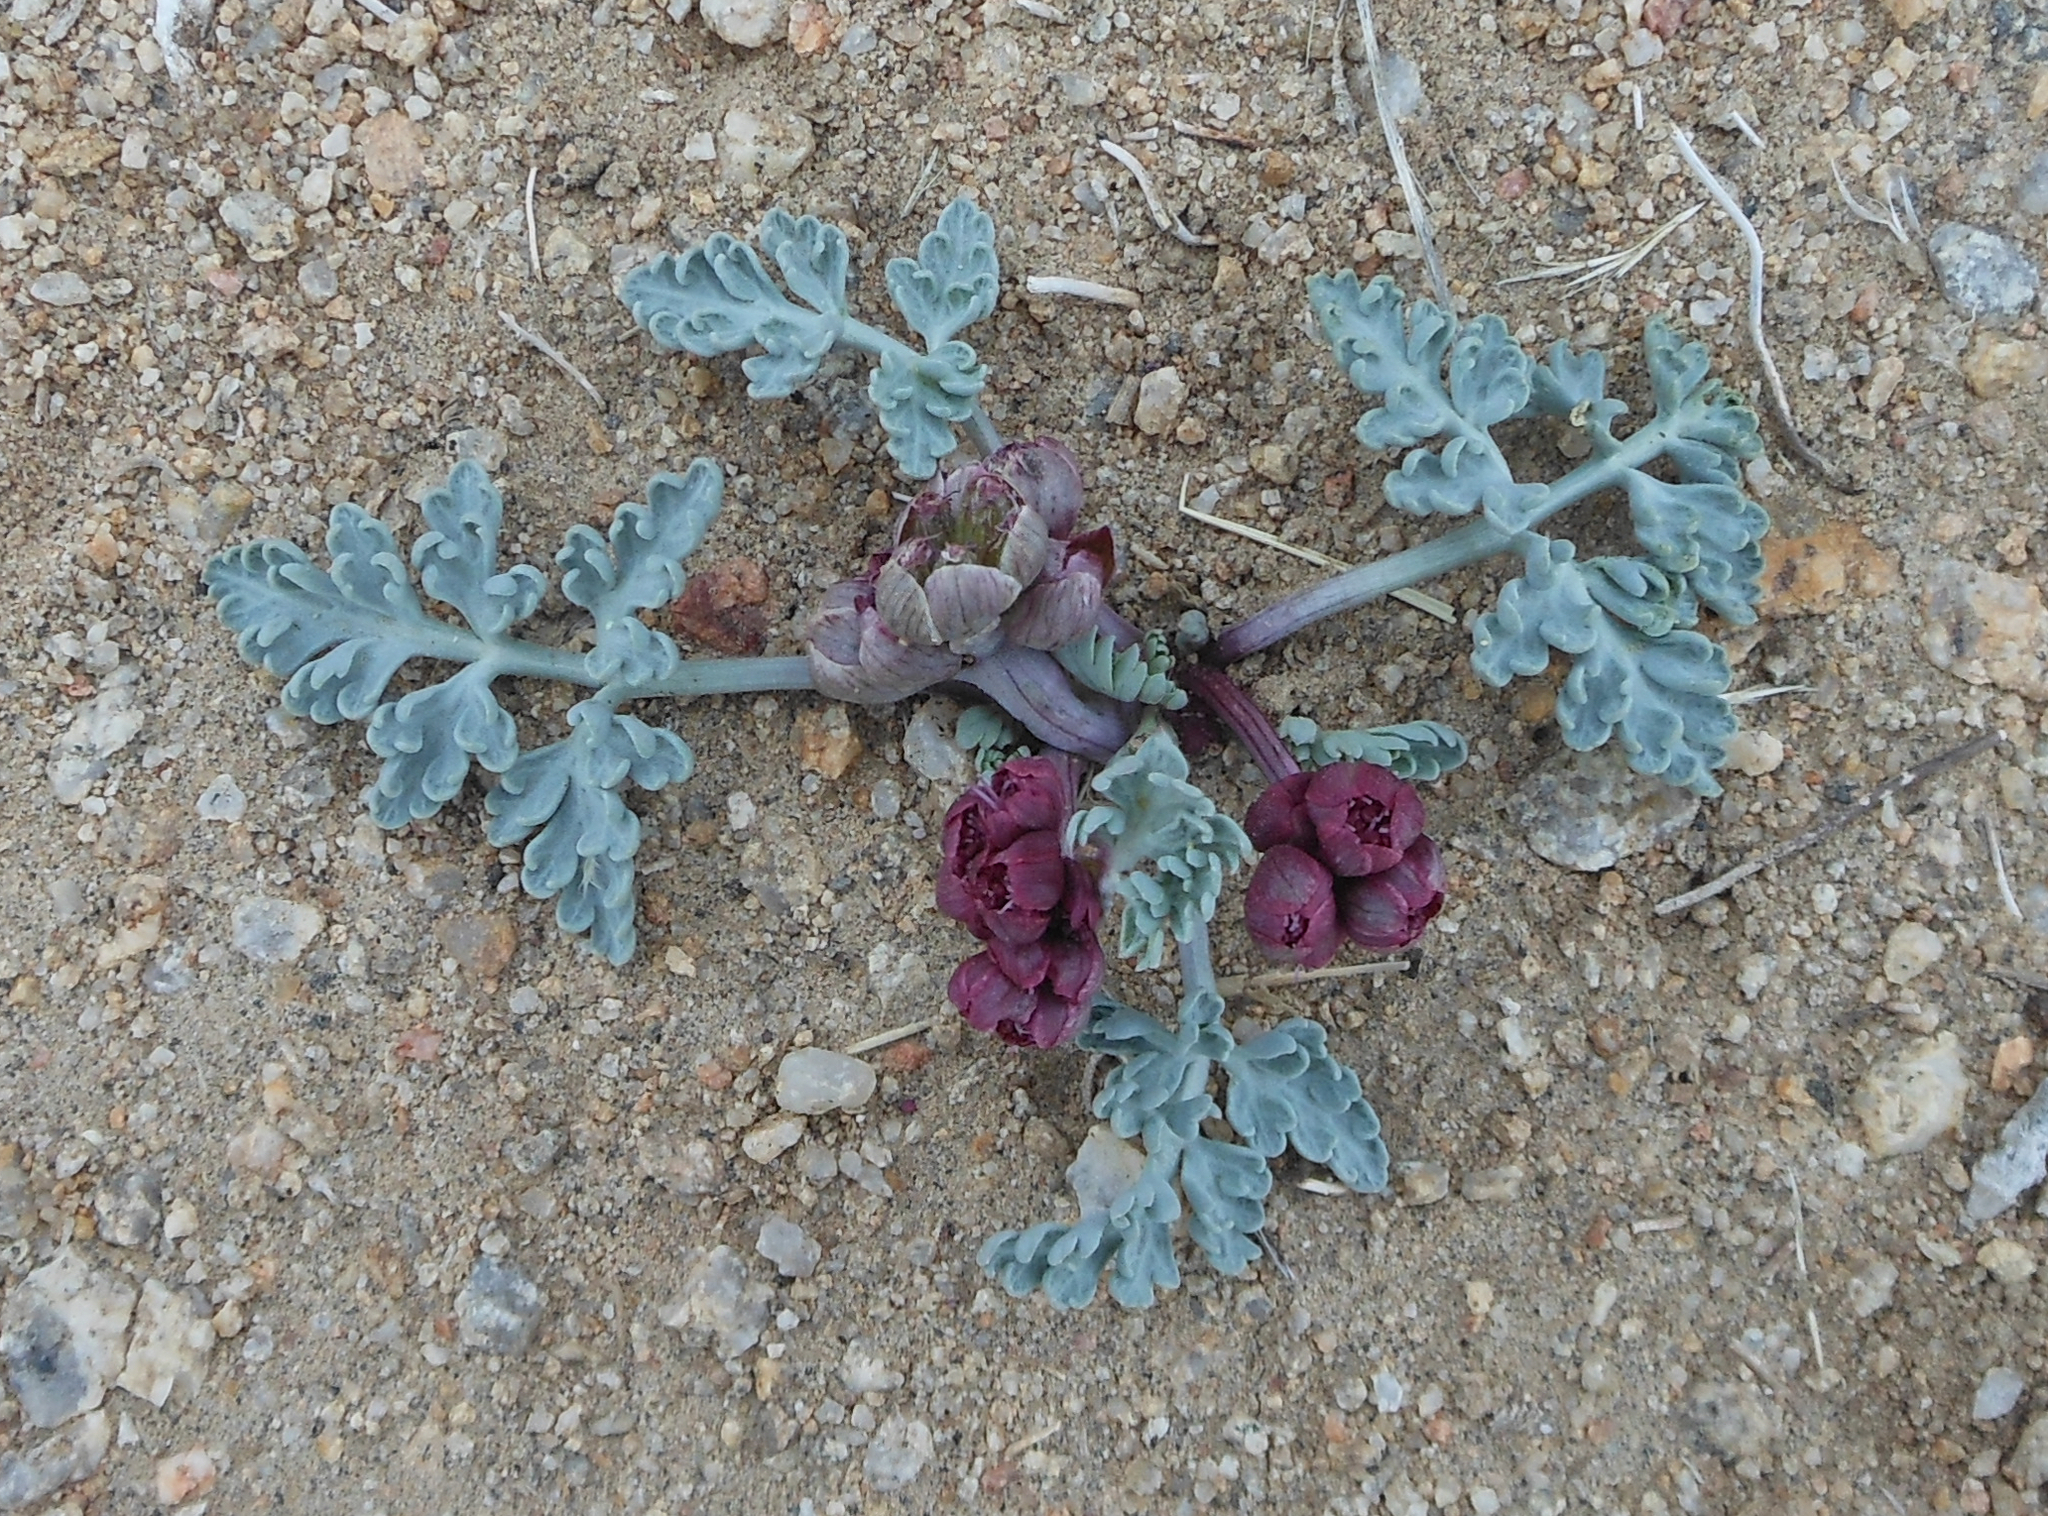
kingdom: Plantae
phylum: Tracheophyta
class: Magnoliopsida
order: Apiales
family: Apiaceae
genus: Vesper
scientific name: Vesper multinervatus
